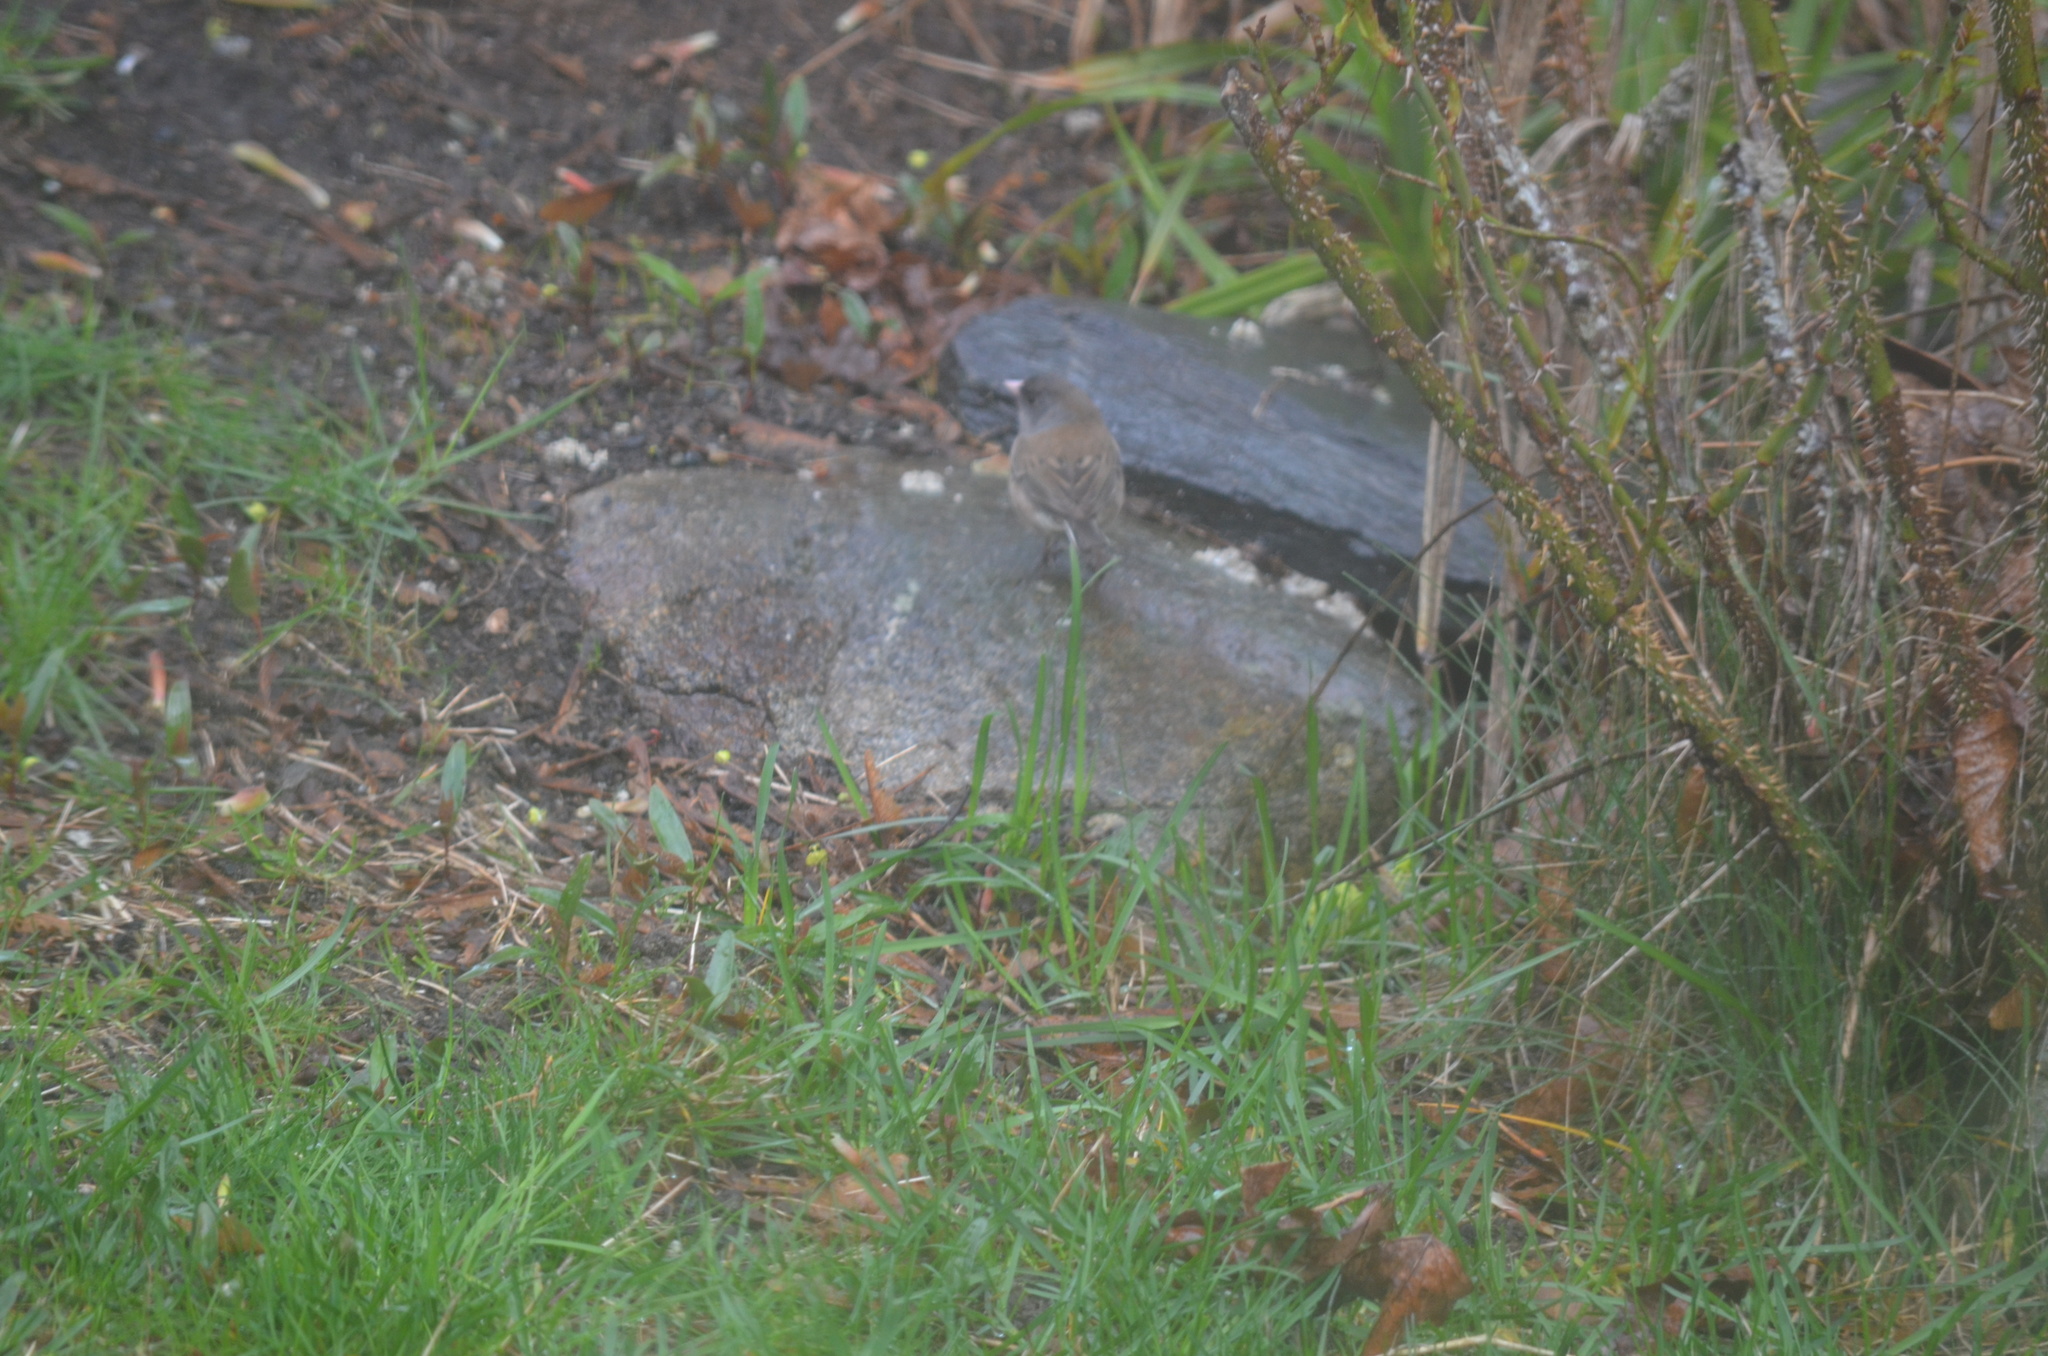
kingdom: Animalia
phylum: Chordata
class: Aves
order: Passeriformes
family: Passerellidae
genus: Junco
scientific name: Junco hyemalis
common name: Dark-eyed junco
